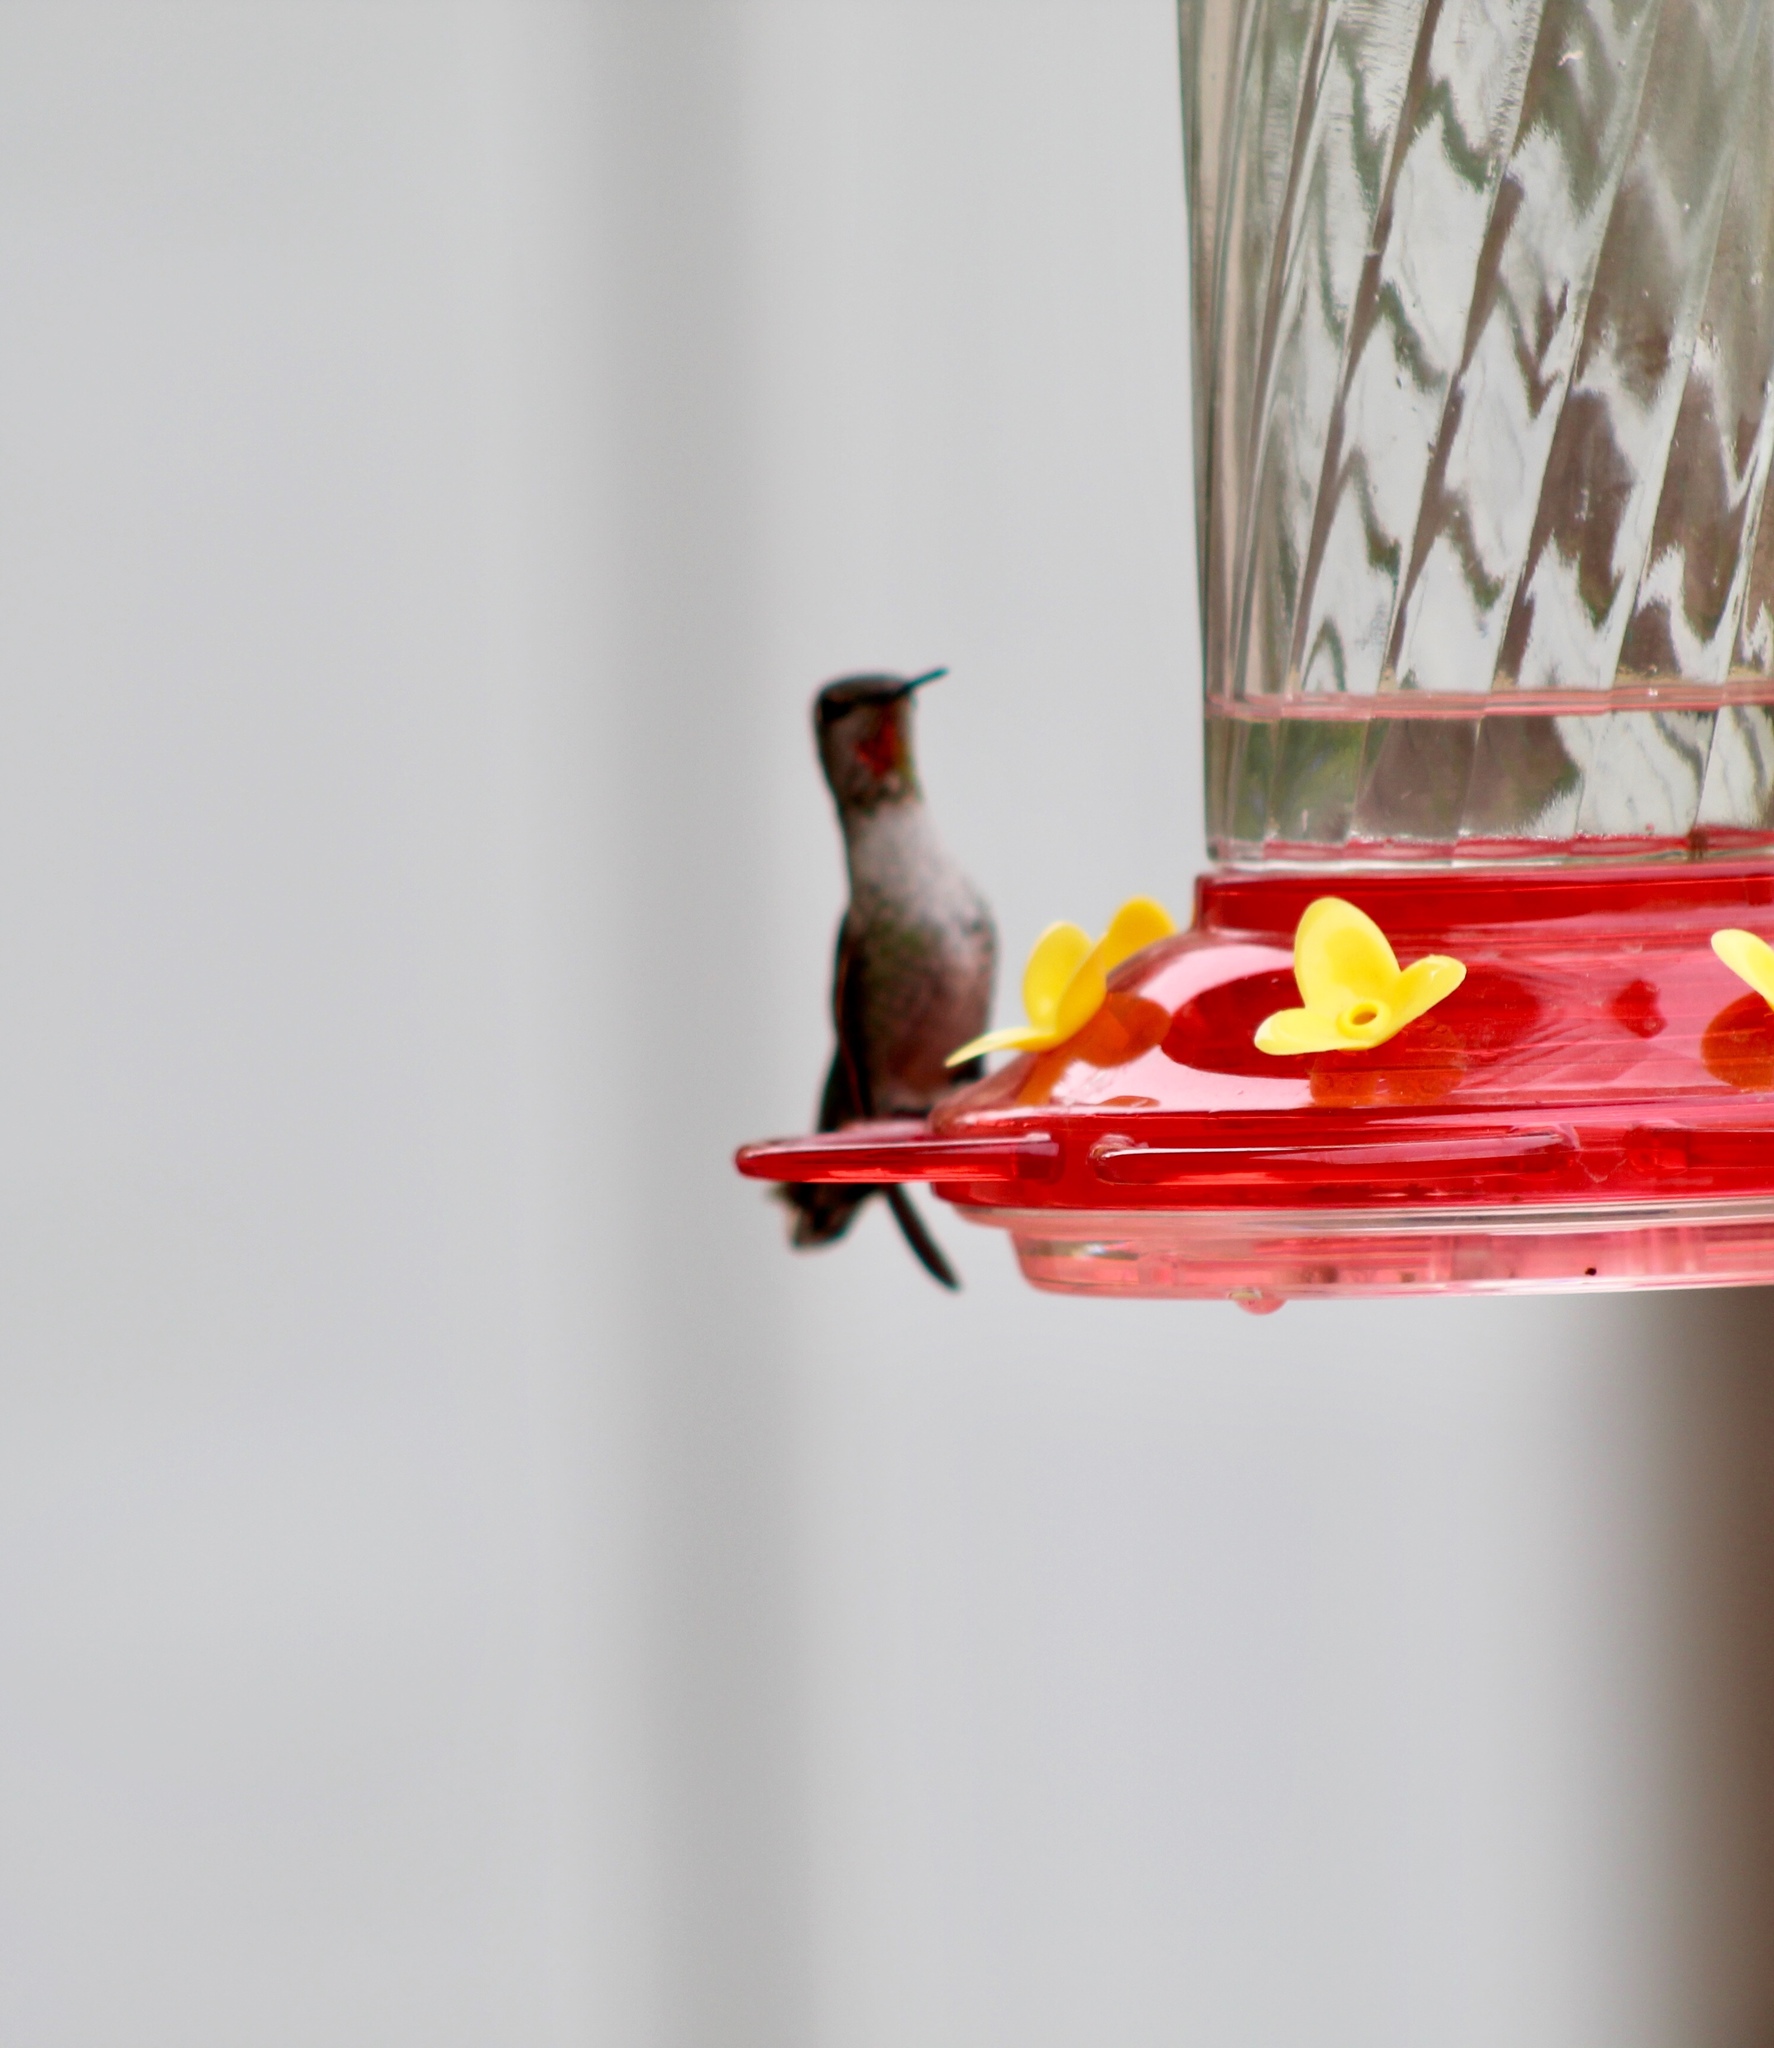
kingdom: Animalia
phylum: Chordata
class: Aves
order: Apodiformes
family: Trochilidae
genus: Calypte
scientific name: Calypte anna
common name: Anna's hummingbird
